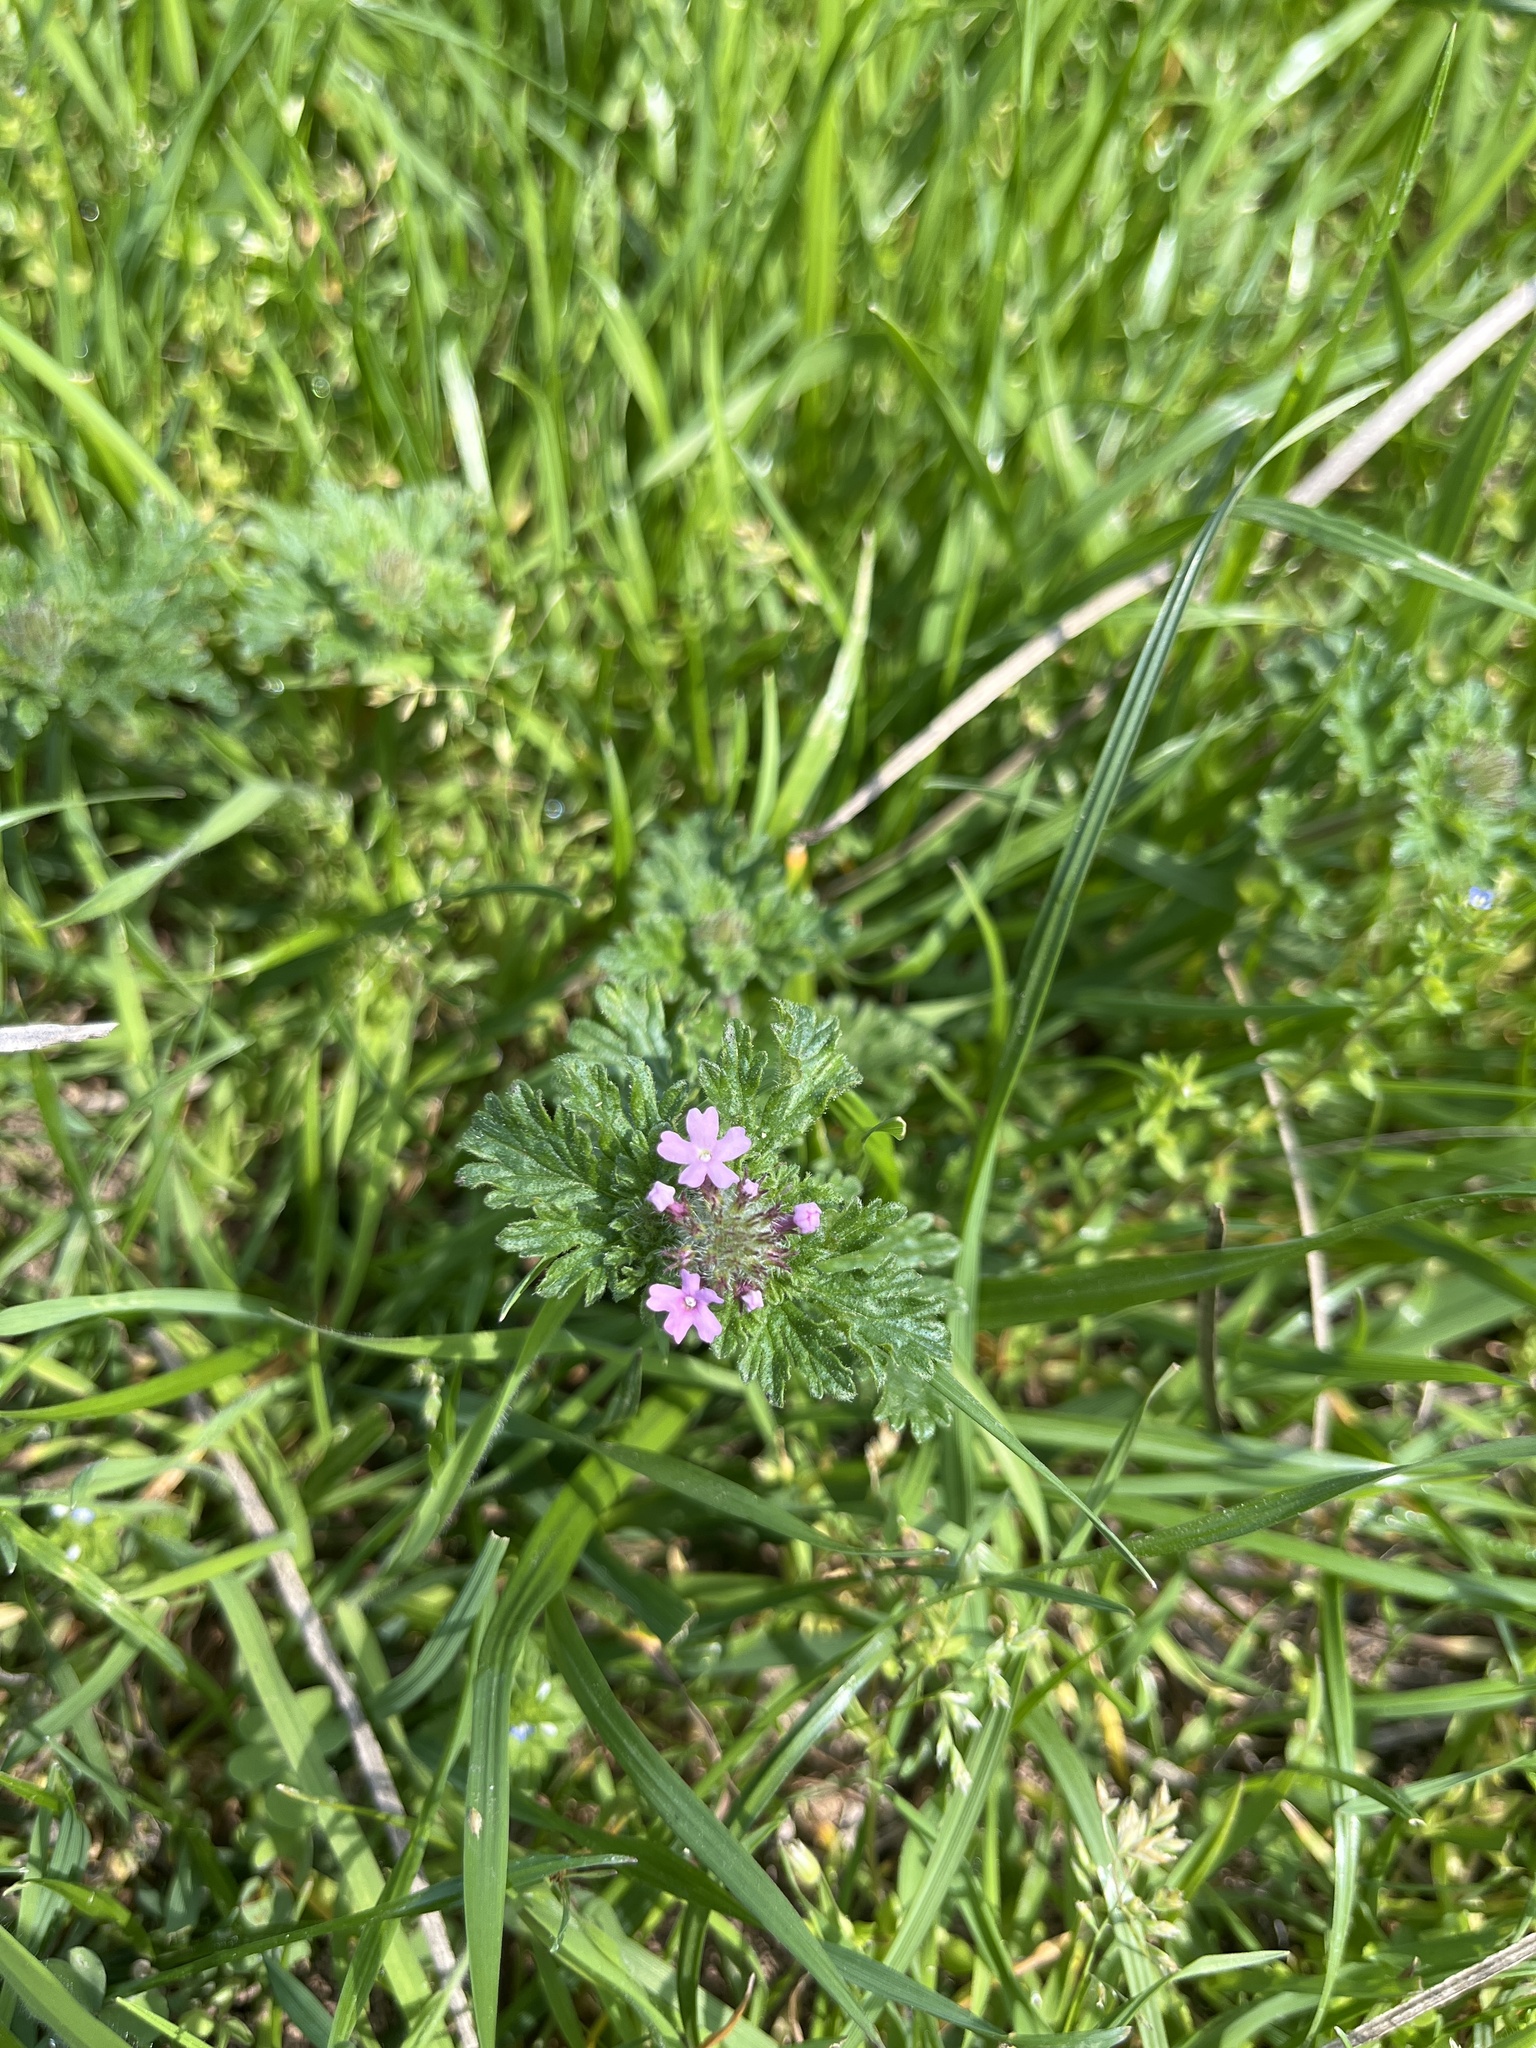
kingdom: Plantae
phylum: Tracheophyta
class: Magnoliopsida
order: Lamiales
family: Verbenaceae
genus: Verbena
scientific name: Verbena pumila
